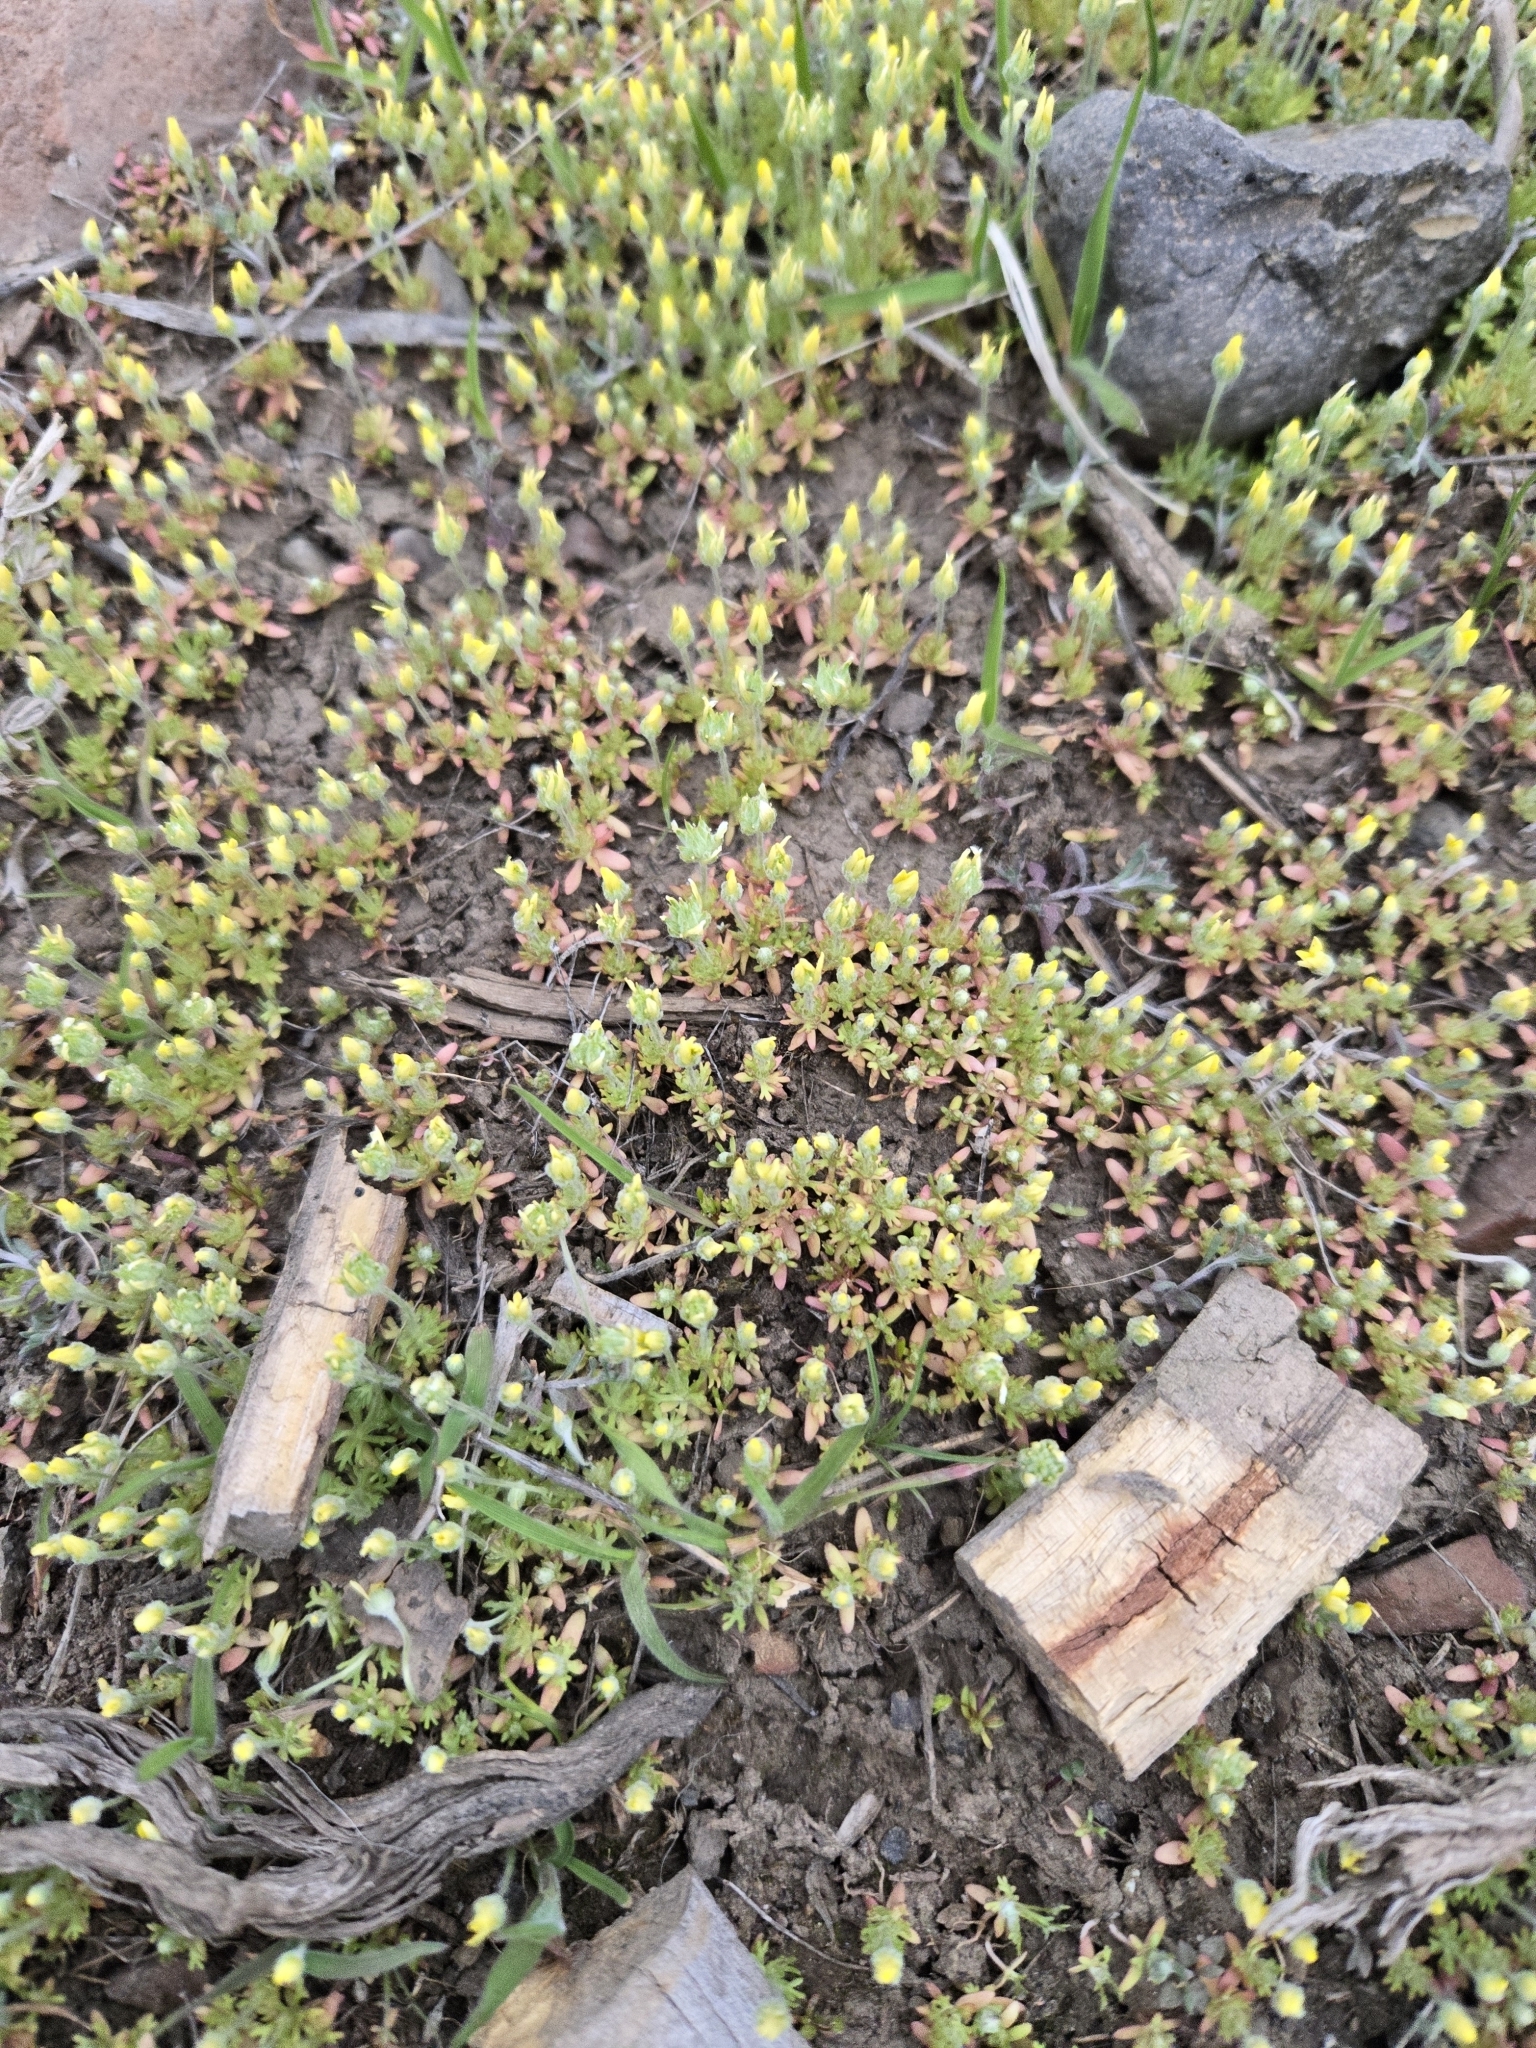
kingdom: Plantae
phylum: Tracheophyta
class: Magnoliopsida
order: Ranunculales
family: Ranunculaceae
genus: Ceratocephala
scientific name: Ceratocephala orthoceras
